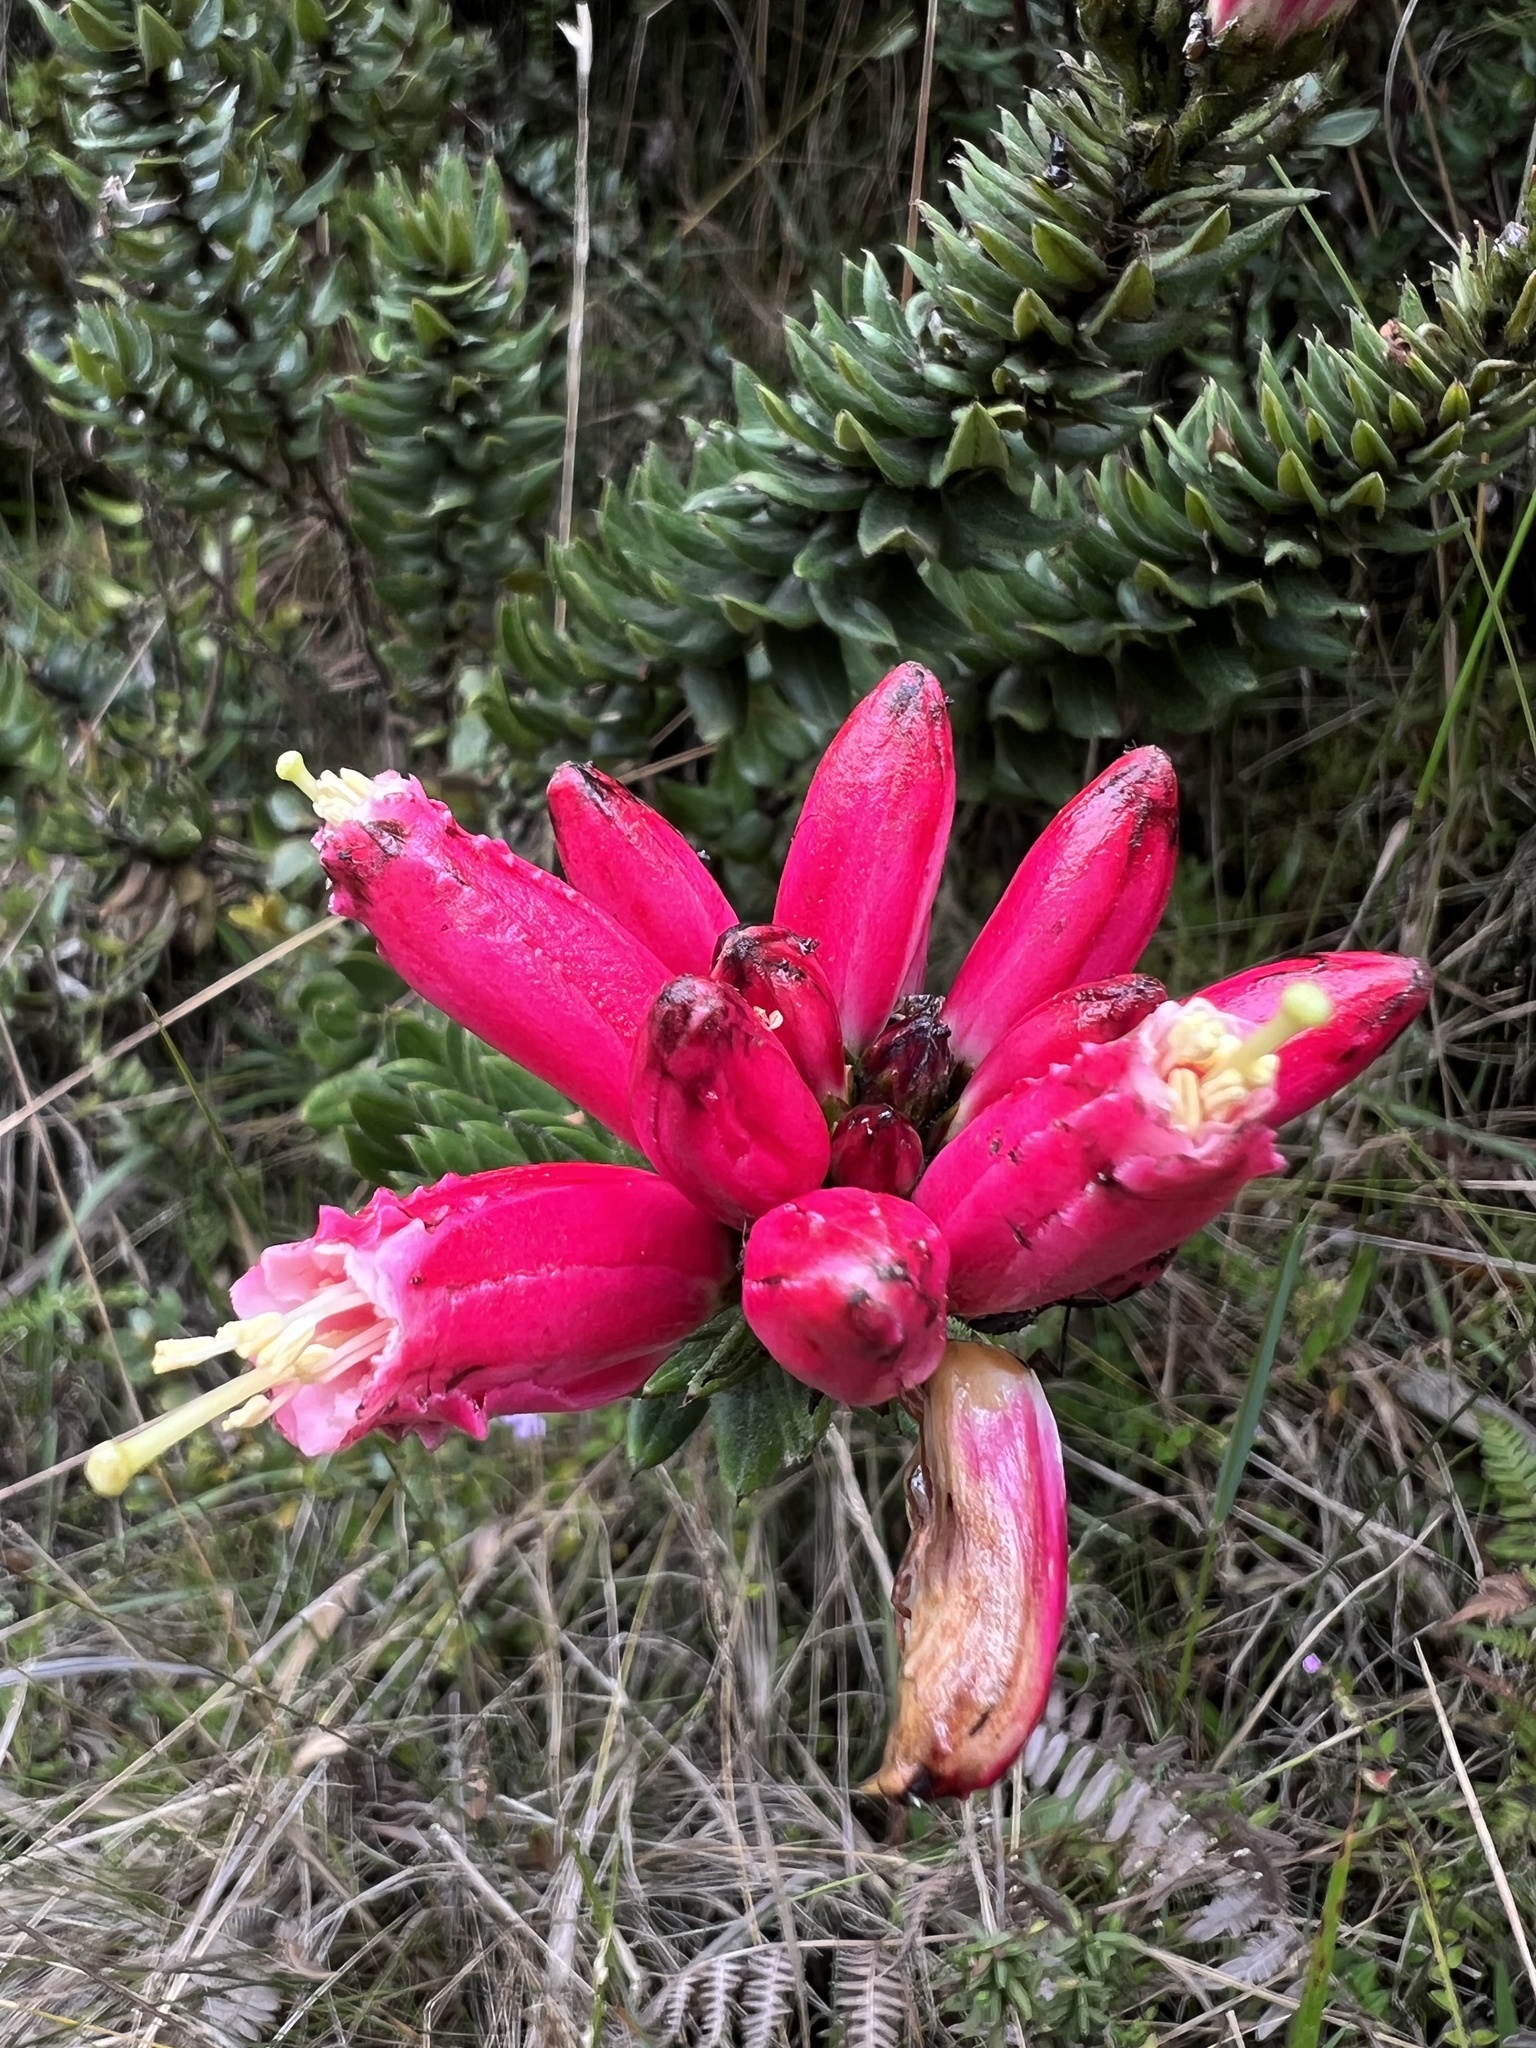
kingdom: Plantae
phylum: Tracheophyta
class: Magnoliopsida
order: Ericales
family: Ericaceae
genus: Bejaria
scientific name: Bejaria resinosa
